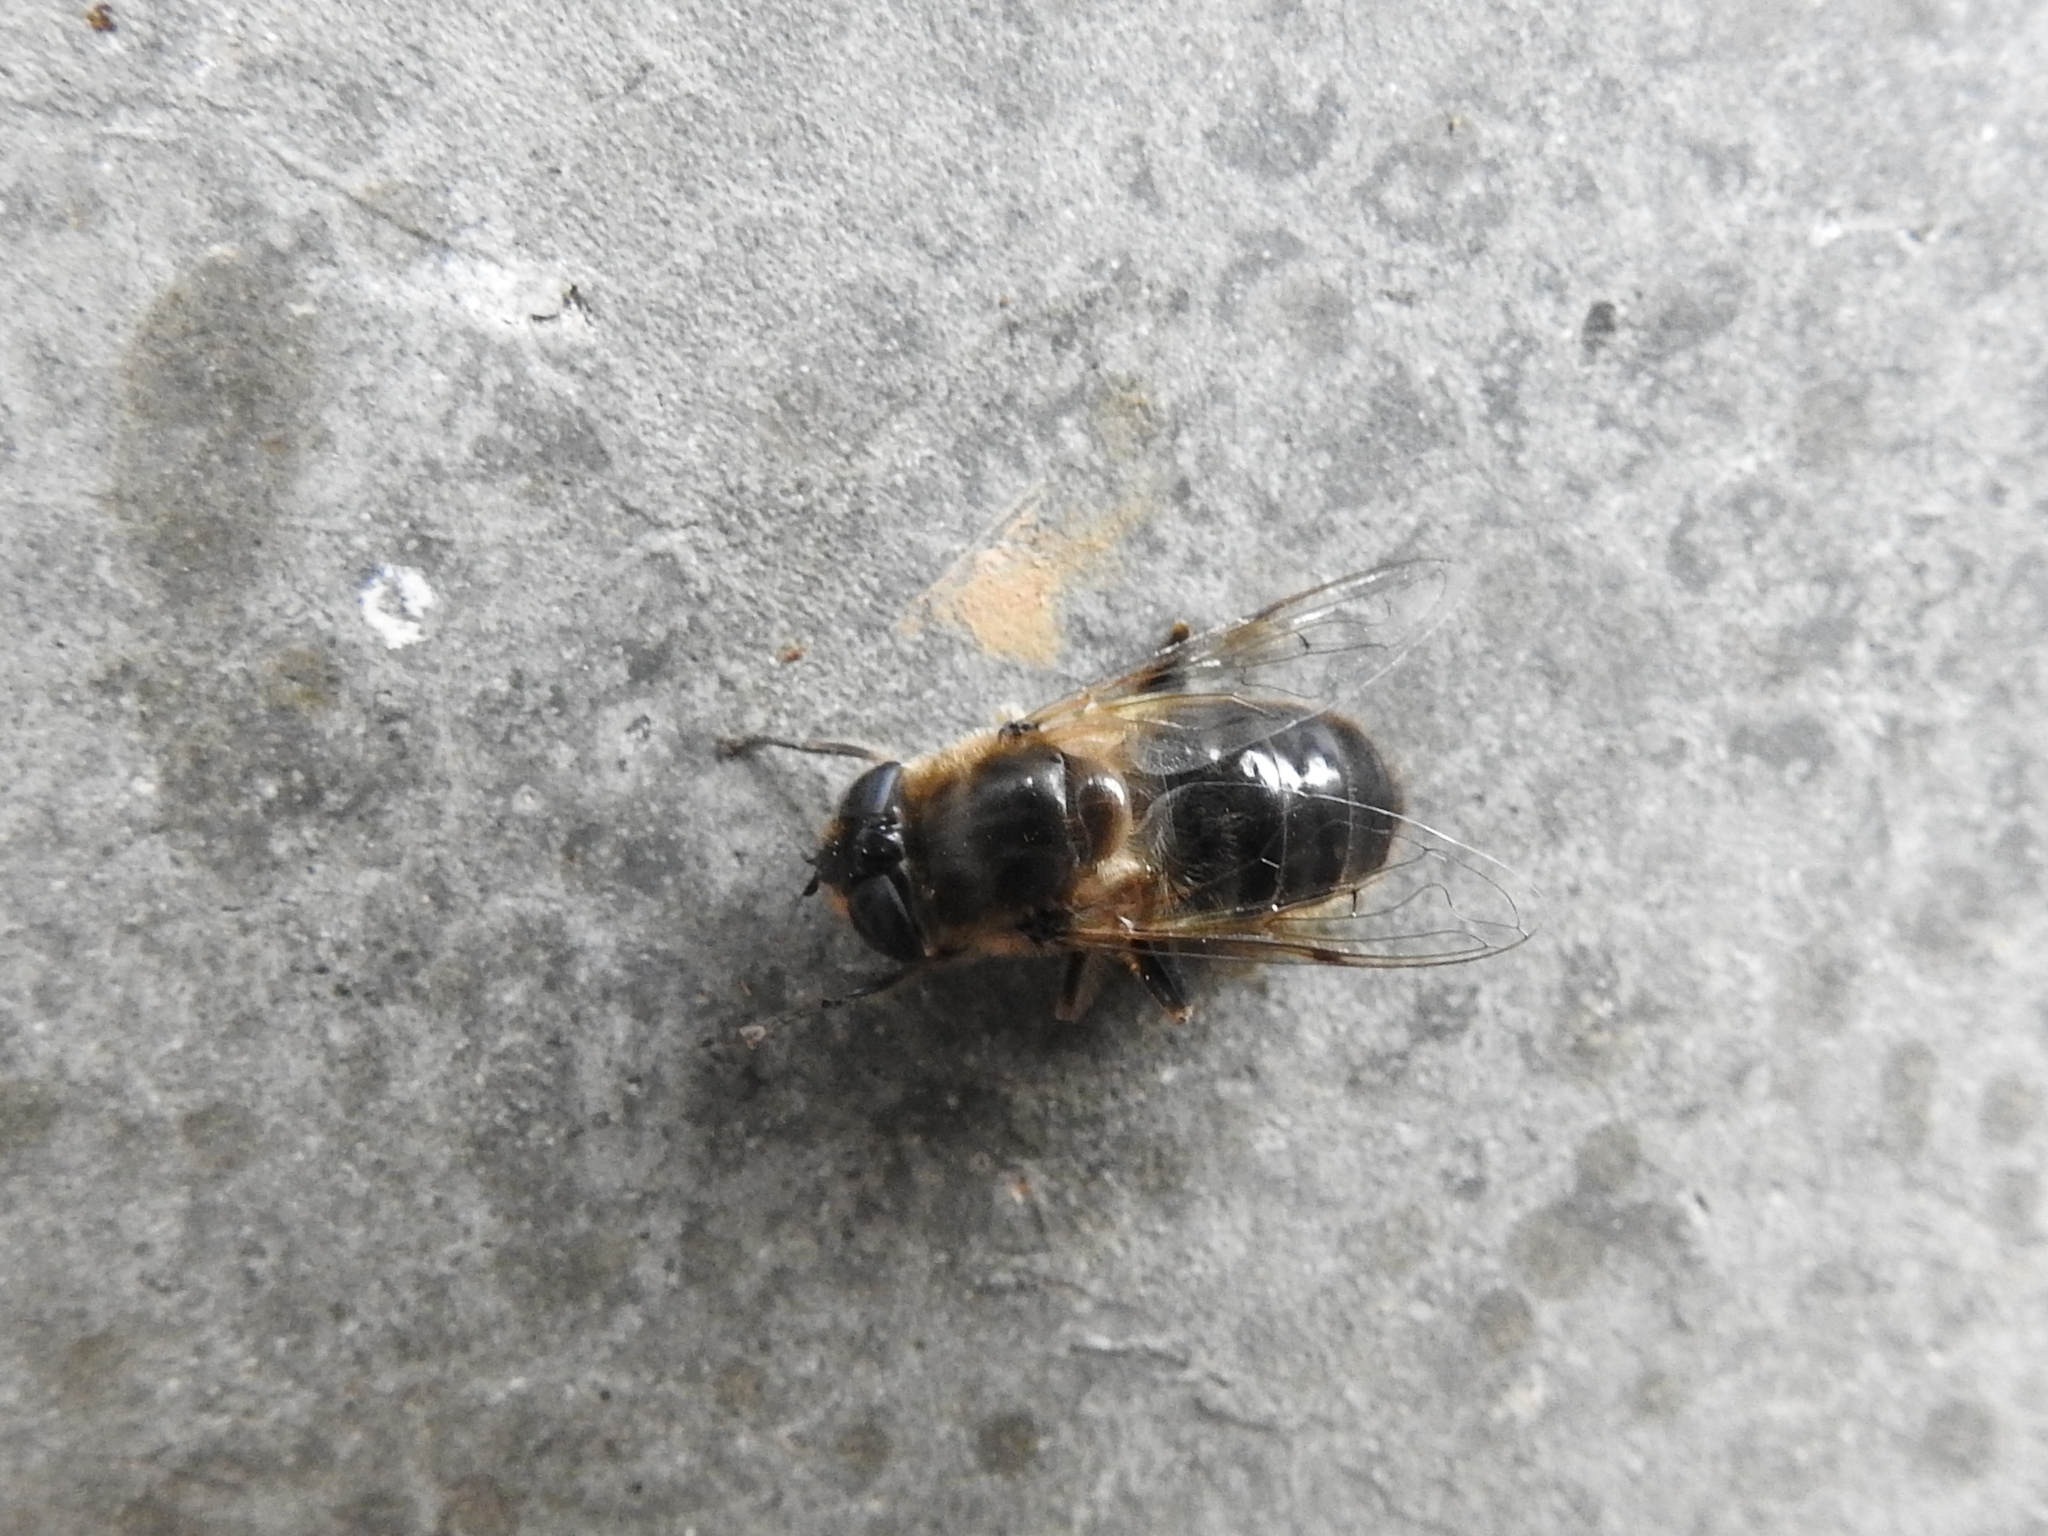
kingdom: Animalia
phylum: Arthropoda
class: Insecta
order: Diptera
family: Syrphidae
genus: Eristalis
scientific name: Eristalis tenax
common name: Drone fly
